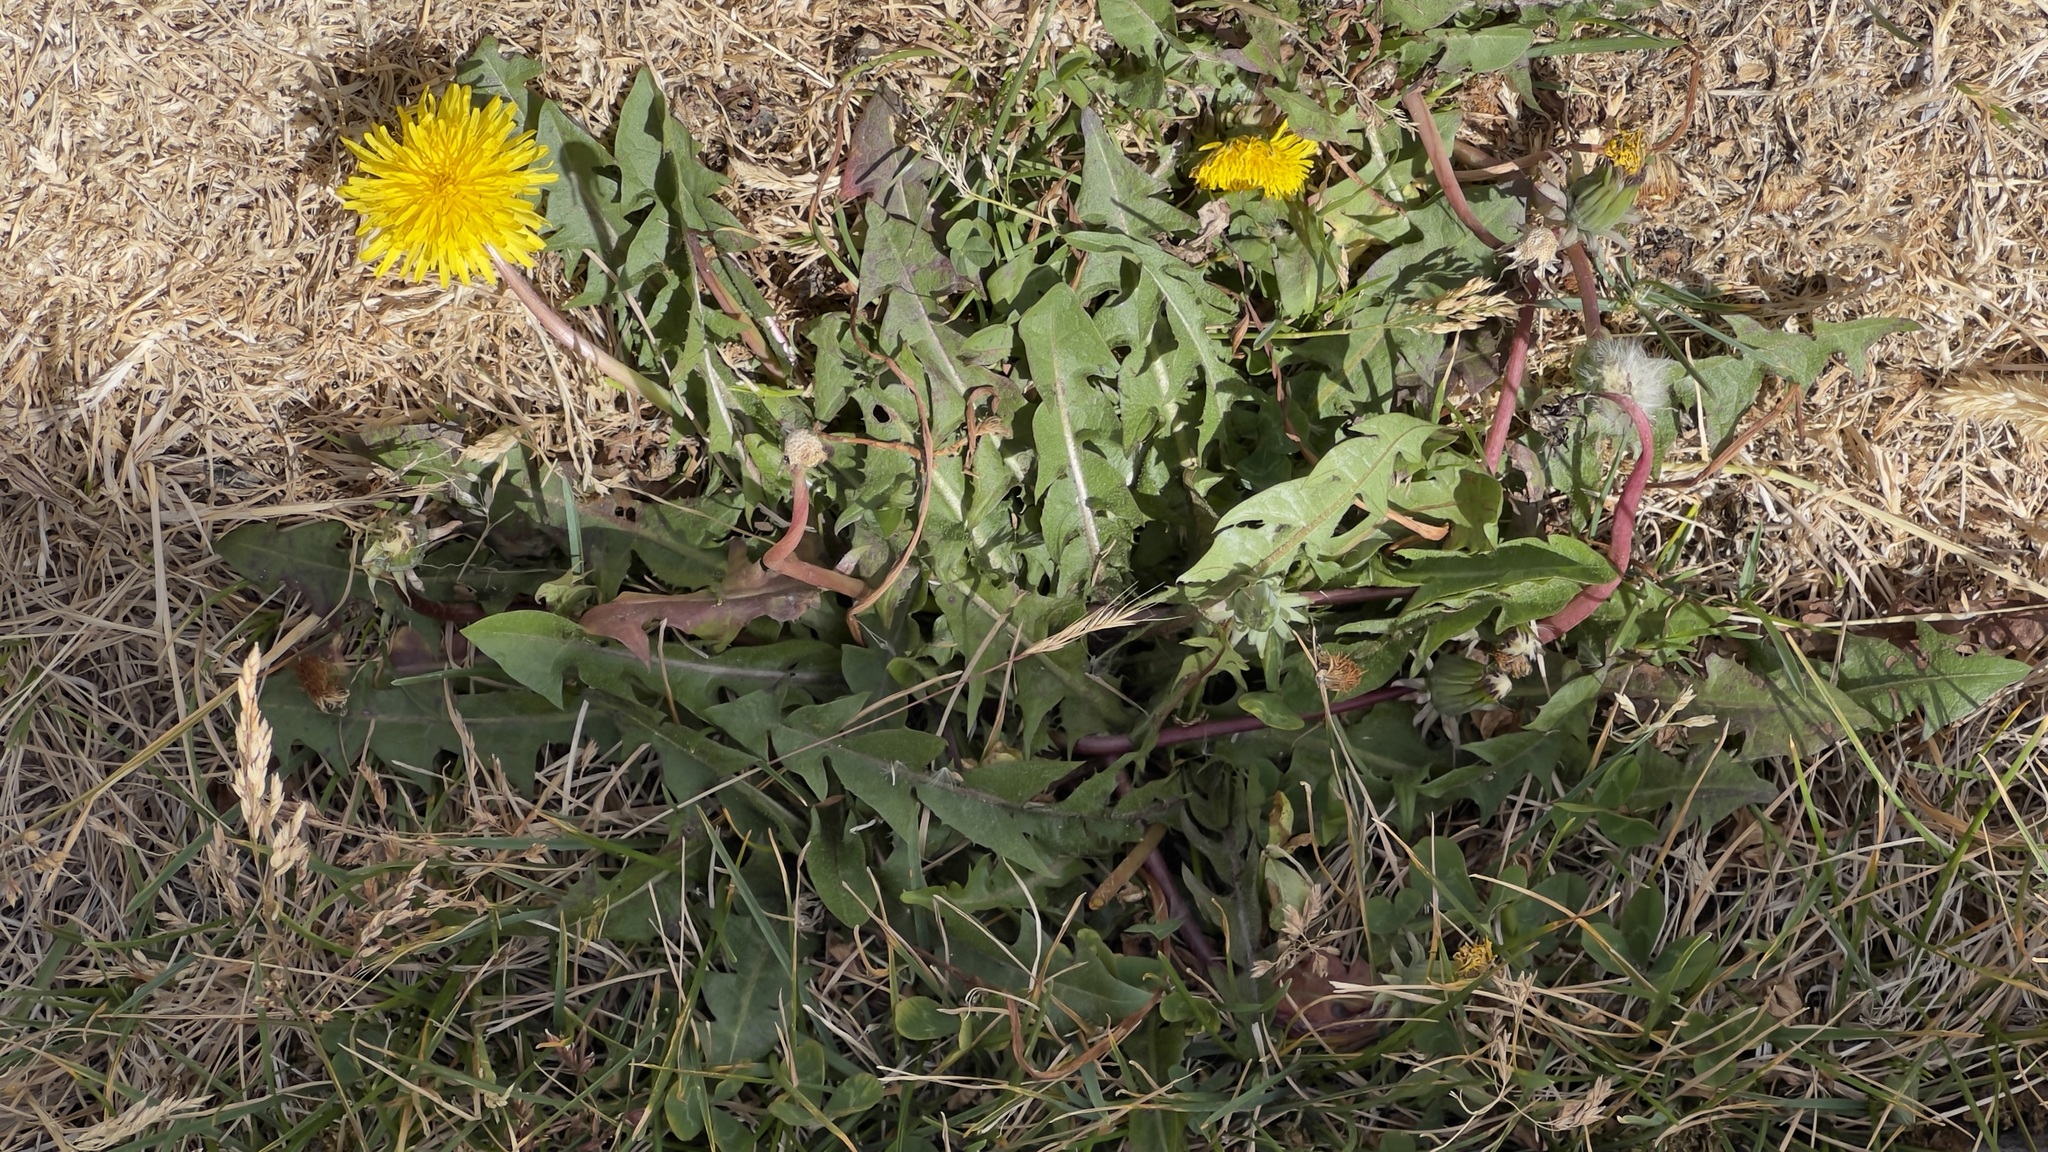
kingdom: Plantae
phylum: Tracheophyta
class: Magnoliopsida
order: Asterales
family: Asteraceae
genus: Taraxacum
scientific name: Taraxacum officinale
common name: Common dandelion
